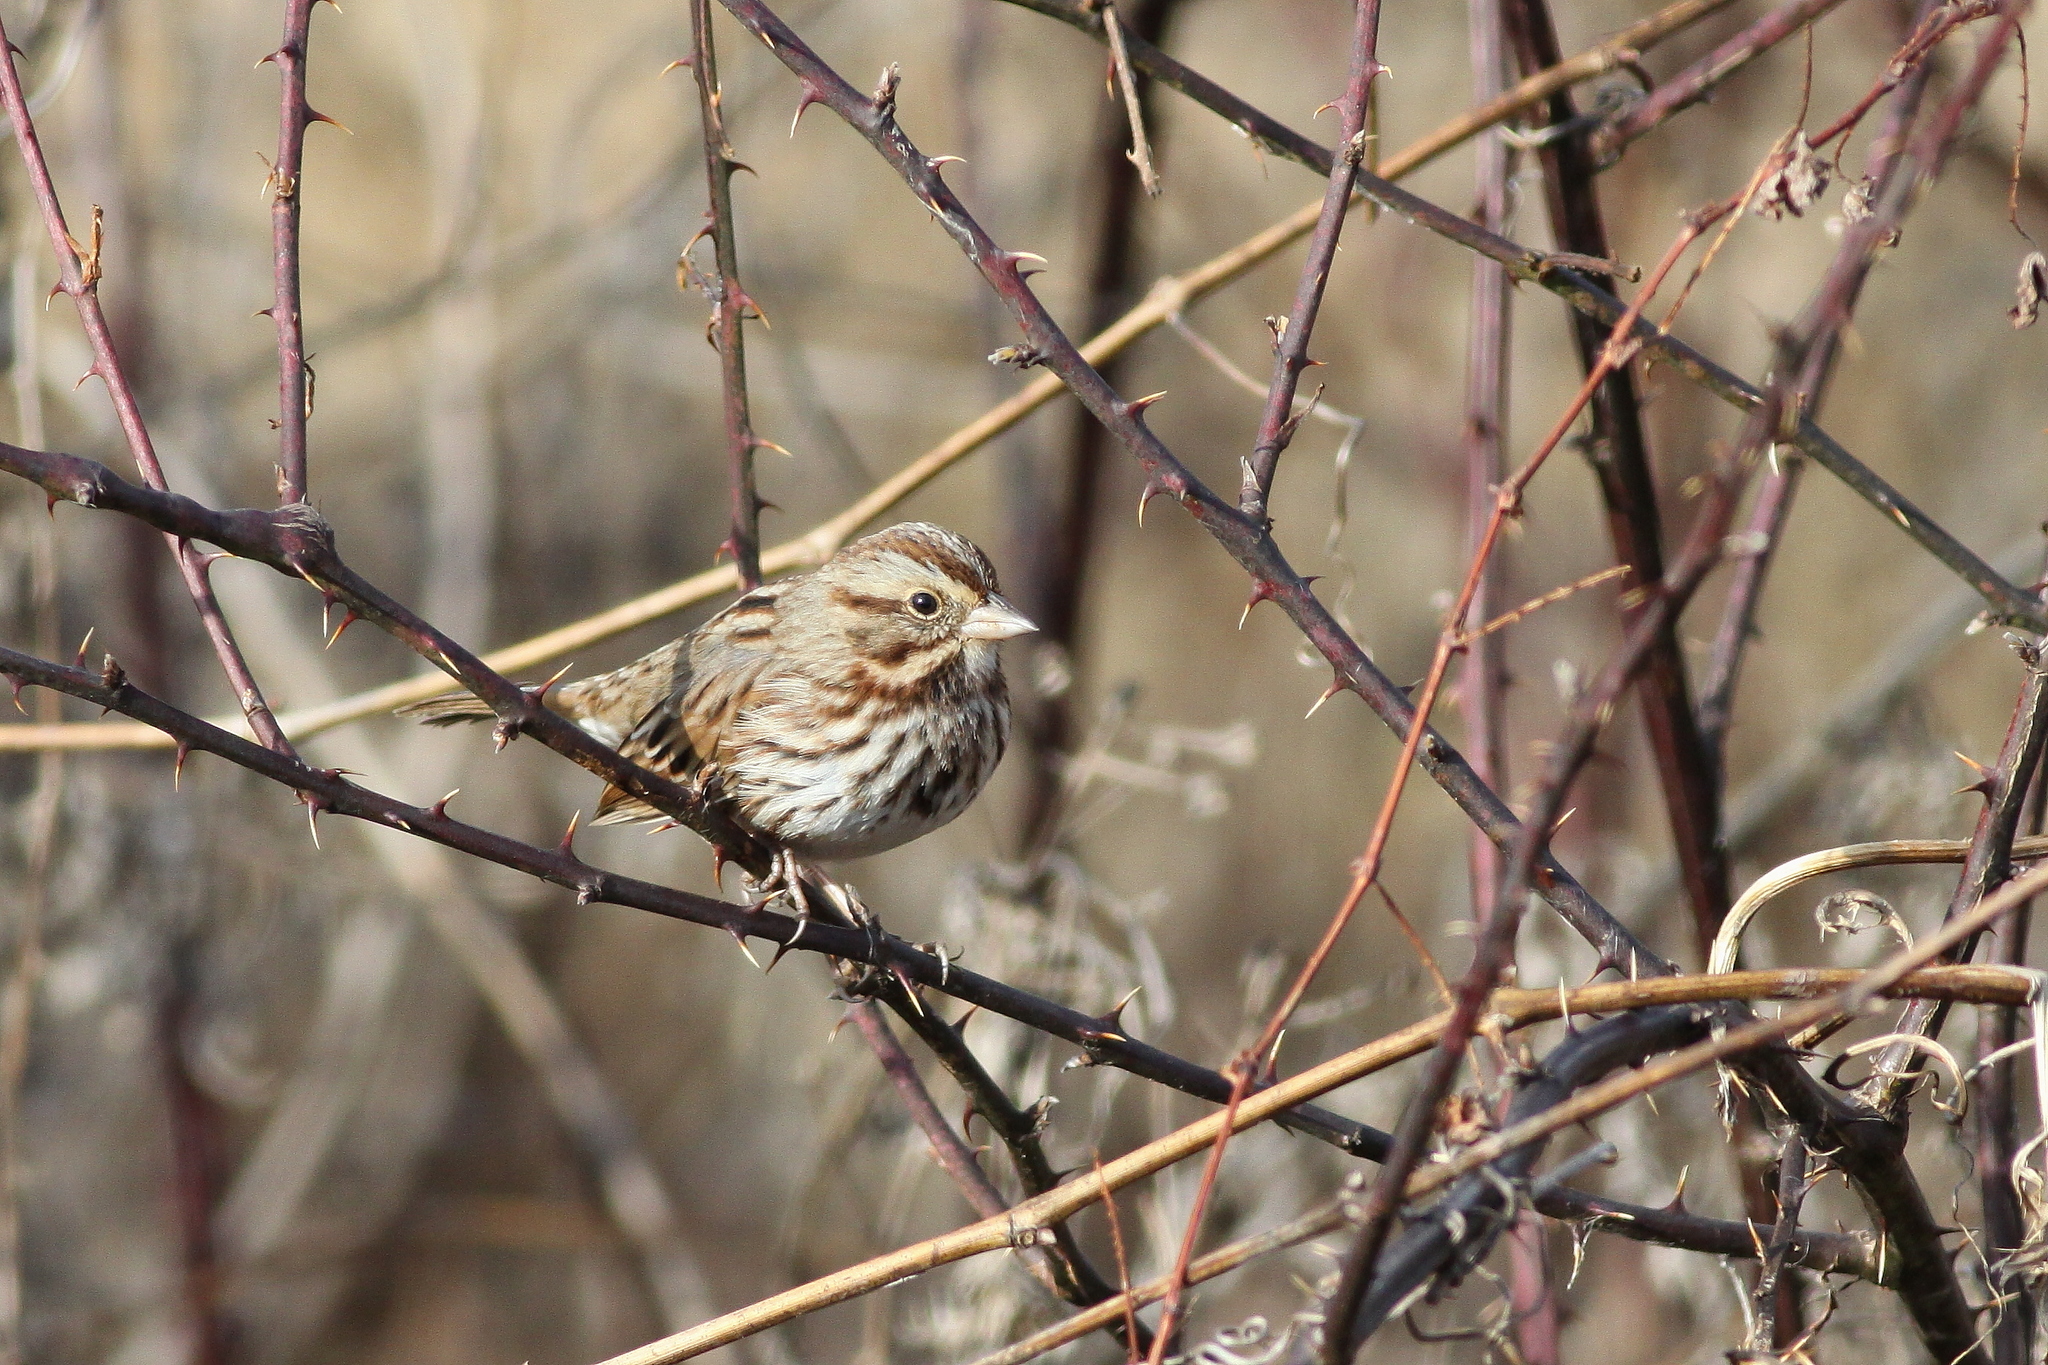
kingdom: Animalia
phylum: Chordata
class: Aves
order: Passeriformes
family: Passerellidae
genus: Melospiza
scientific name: Melospiza melodia
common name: Song sparrow
